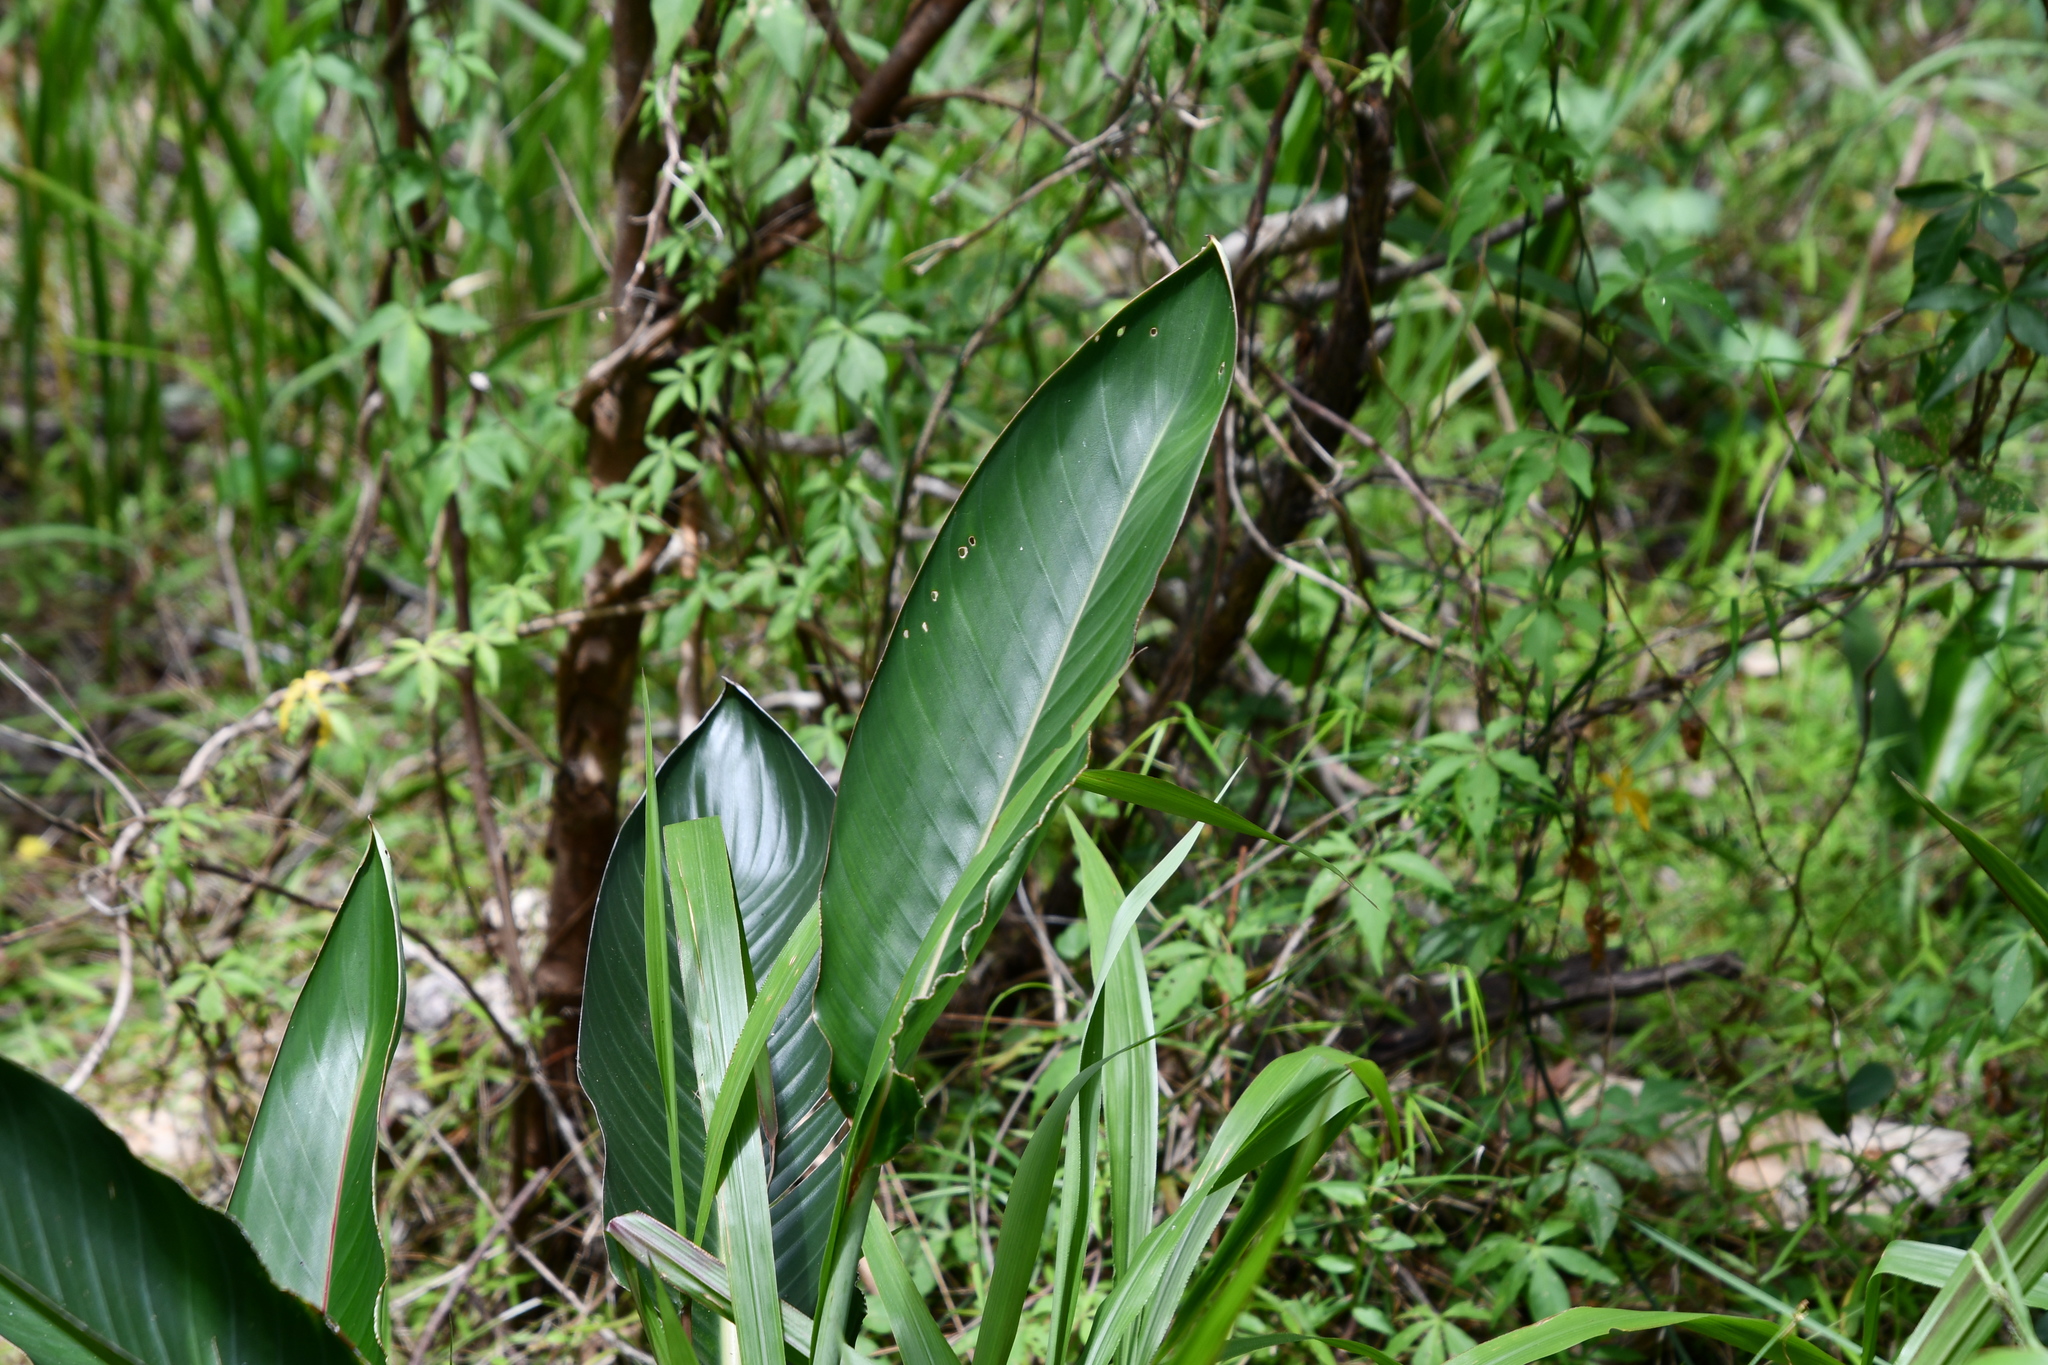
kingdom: Plantae
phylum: Tracheophyta
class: Liliopsida
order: Zingiberales
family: Strelitziaceae
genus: Strelitzia
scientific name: Strelitzia reginae
